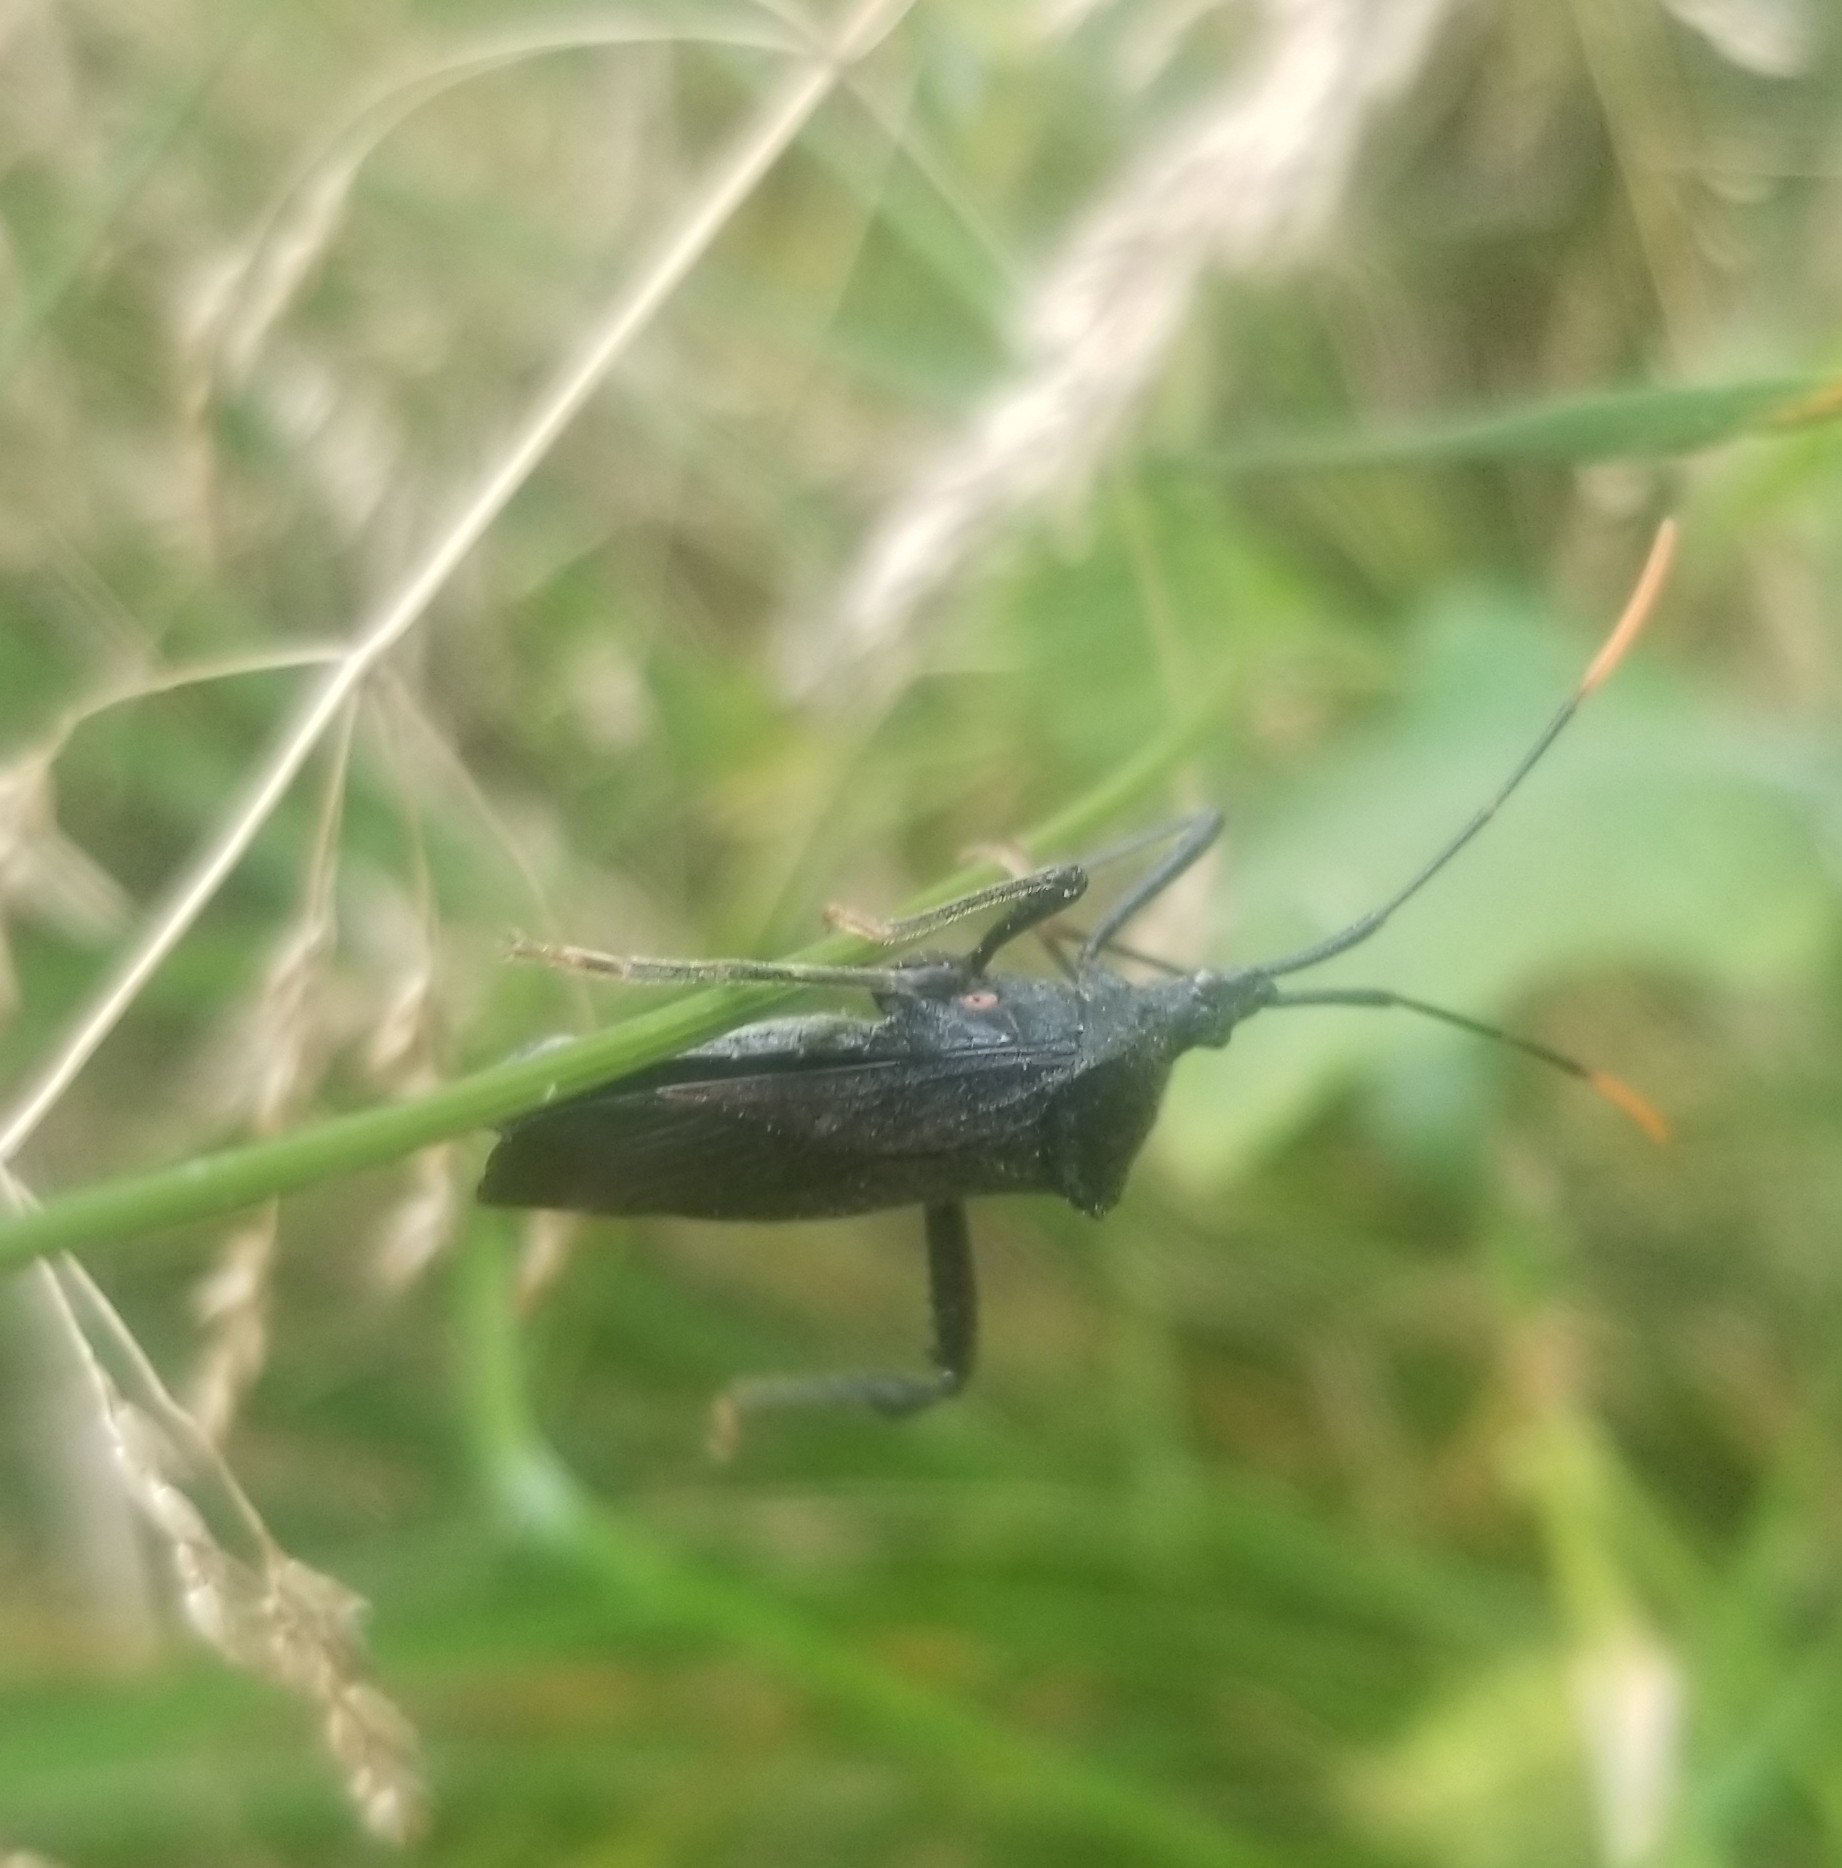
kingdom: Animalia
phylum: Arthropoda
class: Insecta
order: Hemiptera
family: Coreidae
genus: Acanthocephala
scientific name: Acanthocephala terminalis
